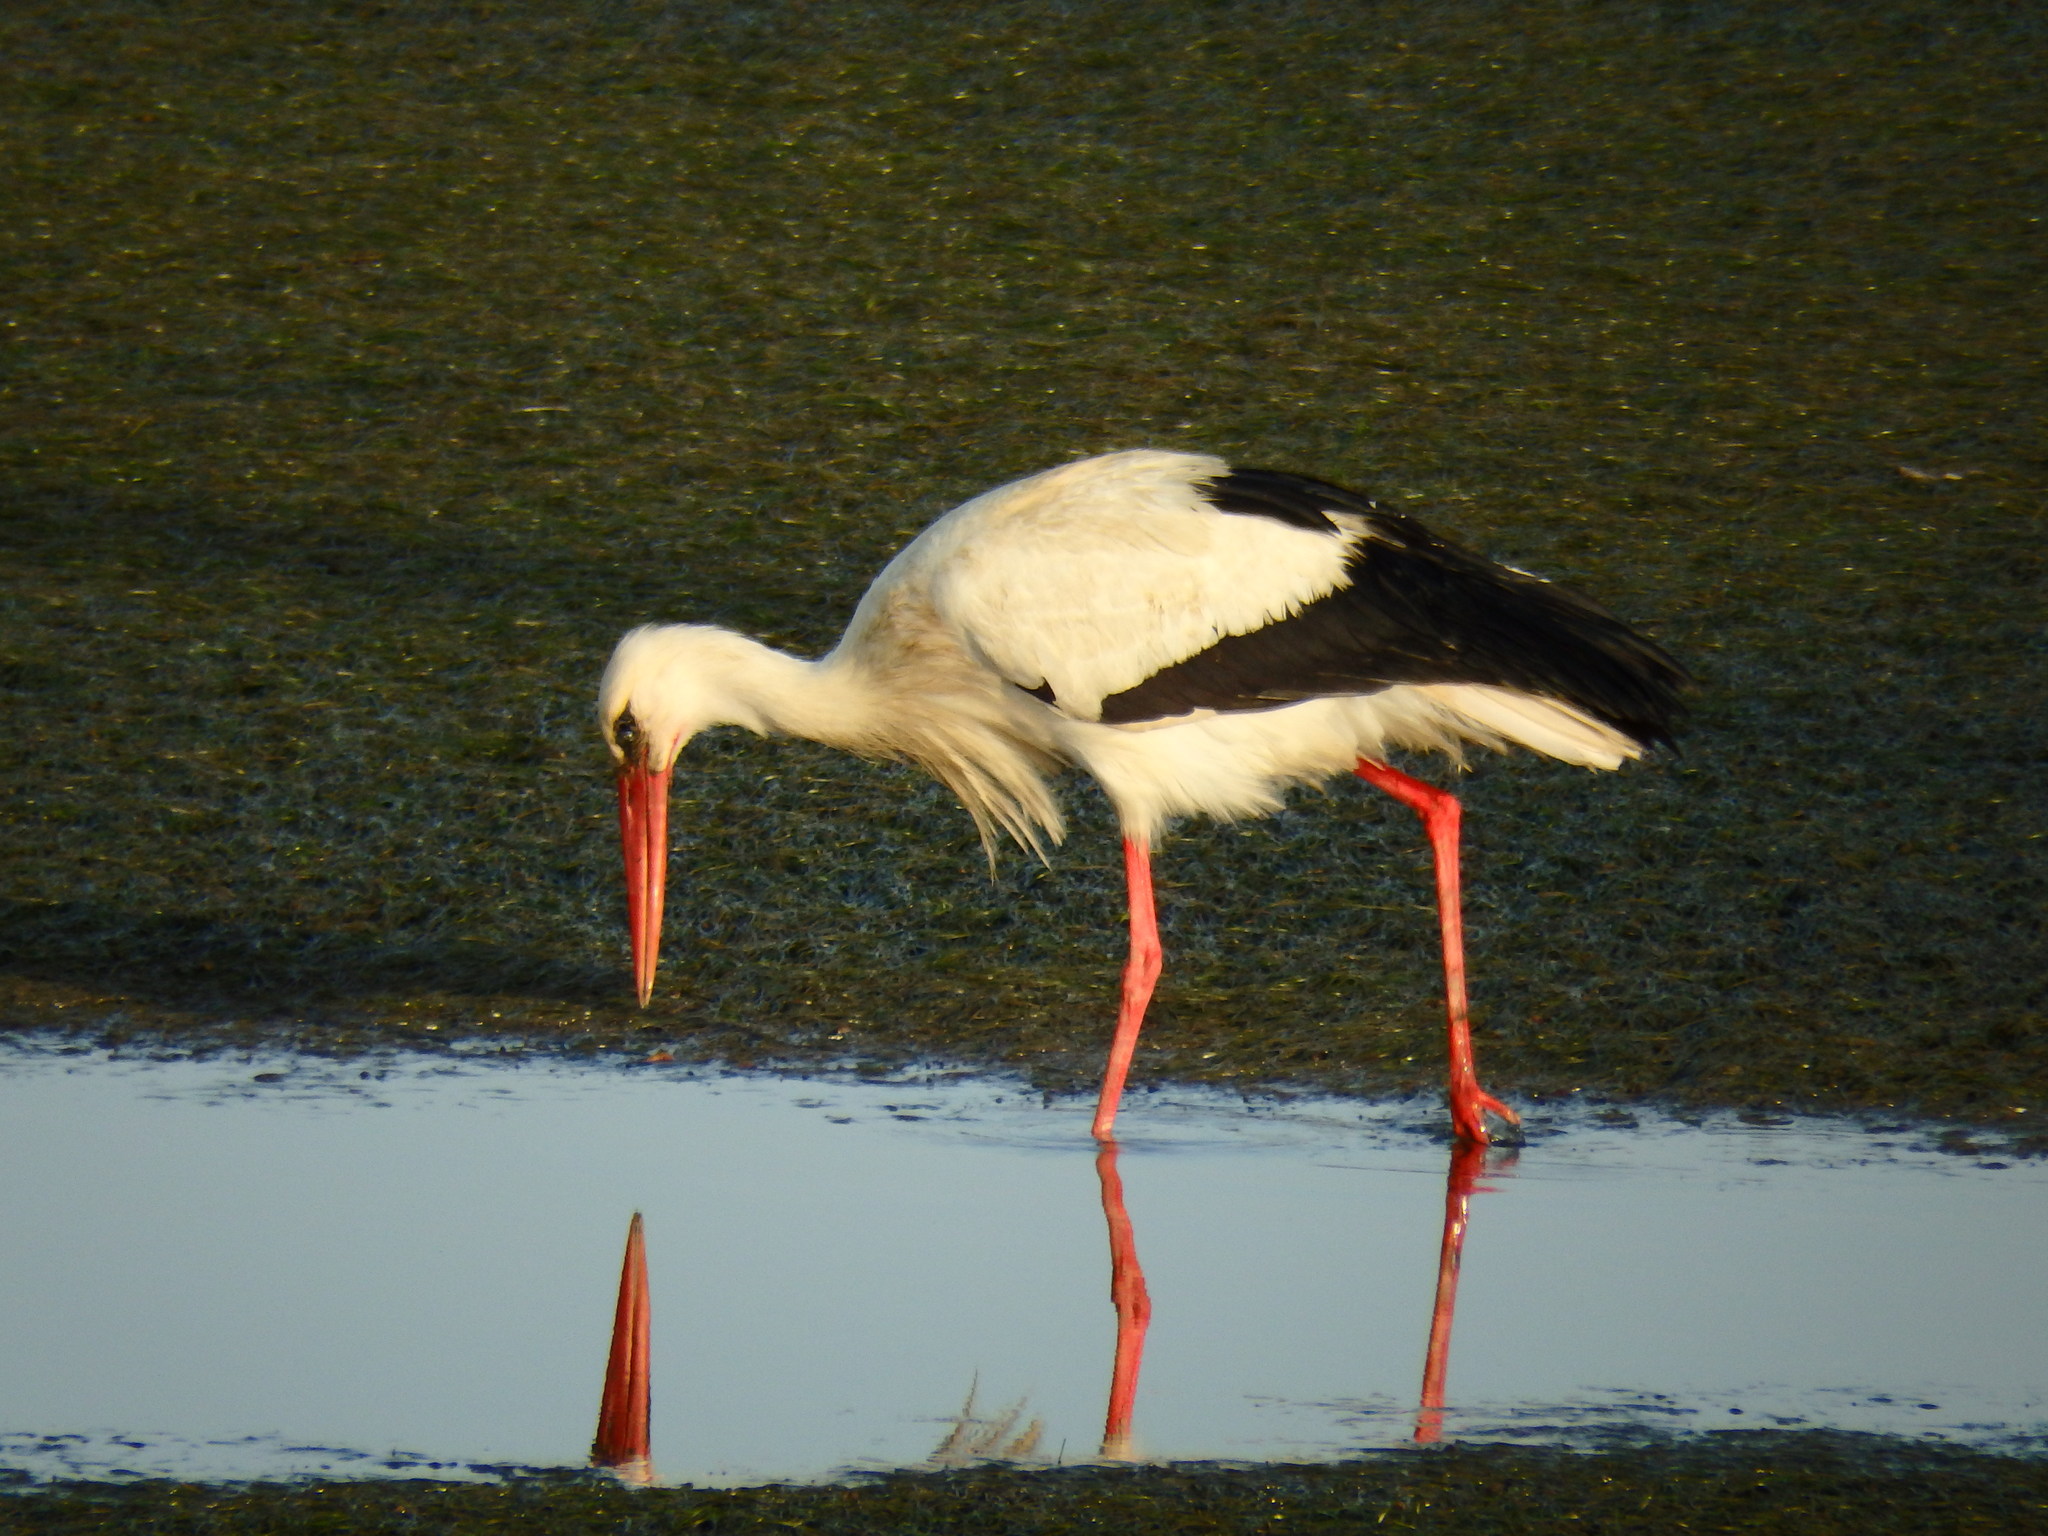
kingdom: Animalia
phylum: Chordata
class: Aves
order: Ciconiiformes
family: Ciconiidae
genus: Ciconia
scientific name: Ciconia ciconia
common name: White stork
